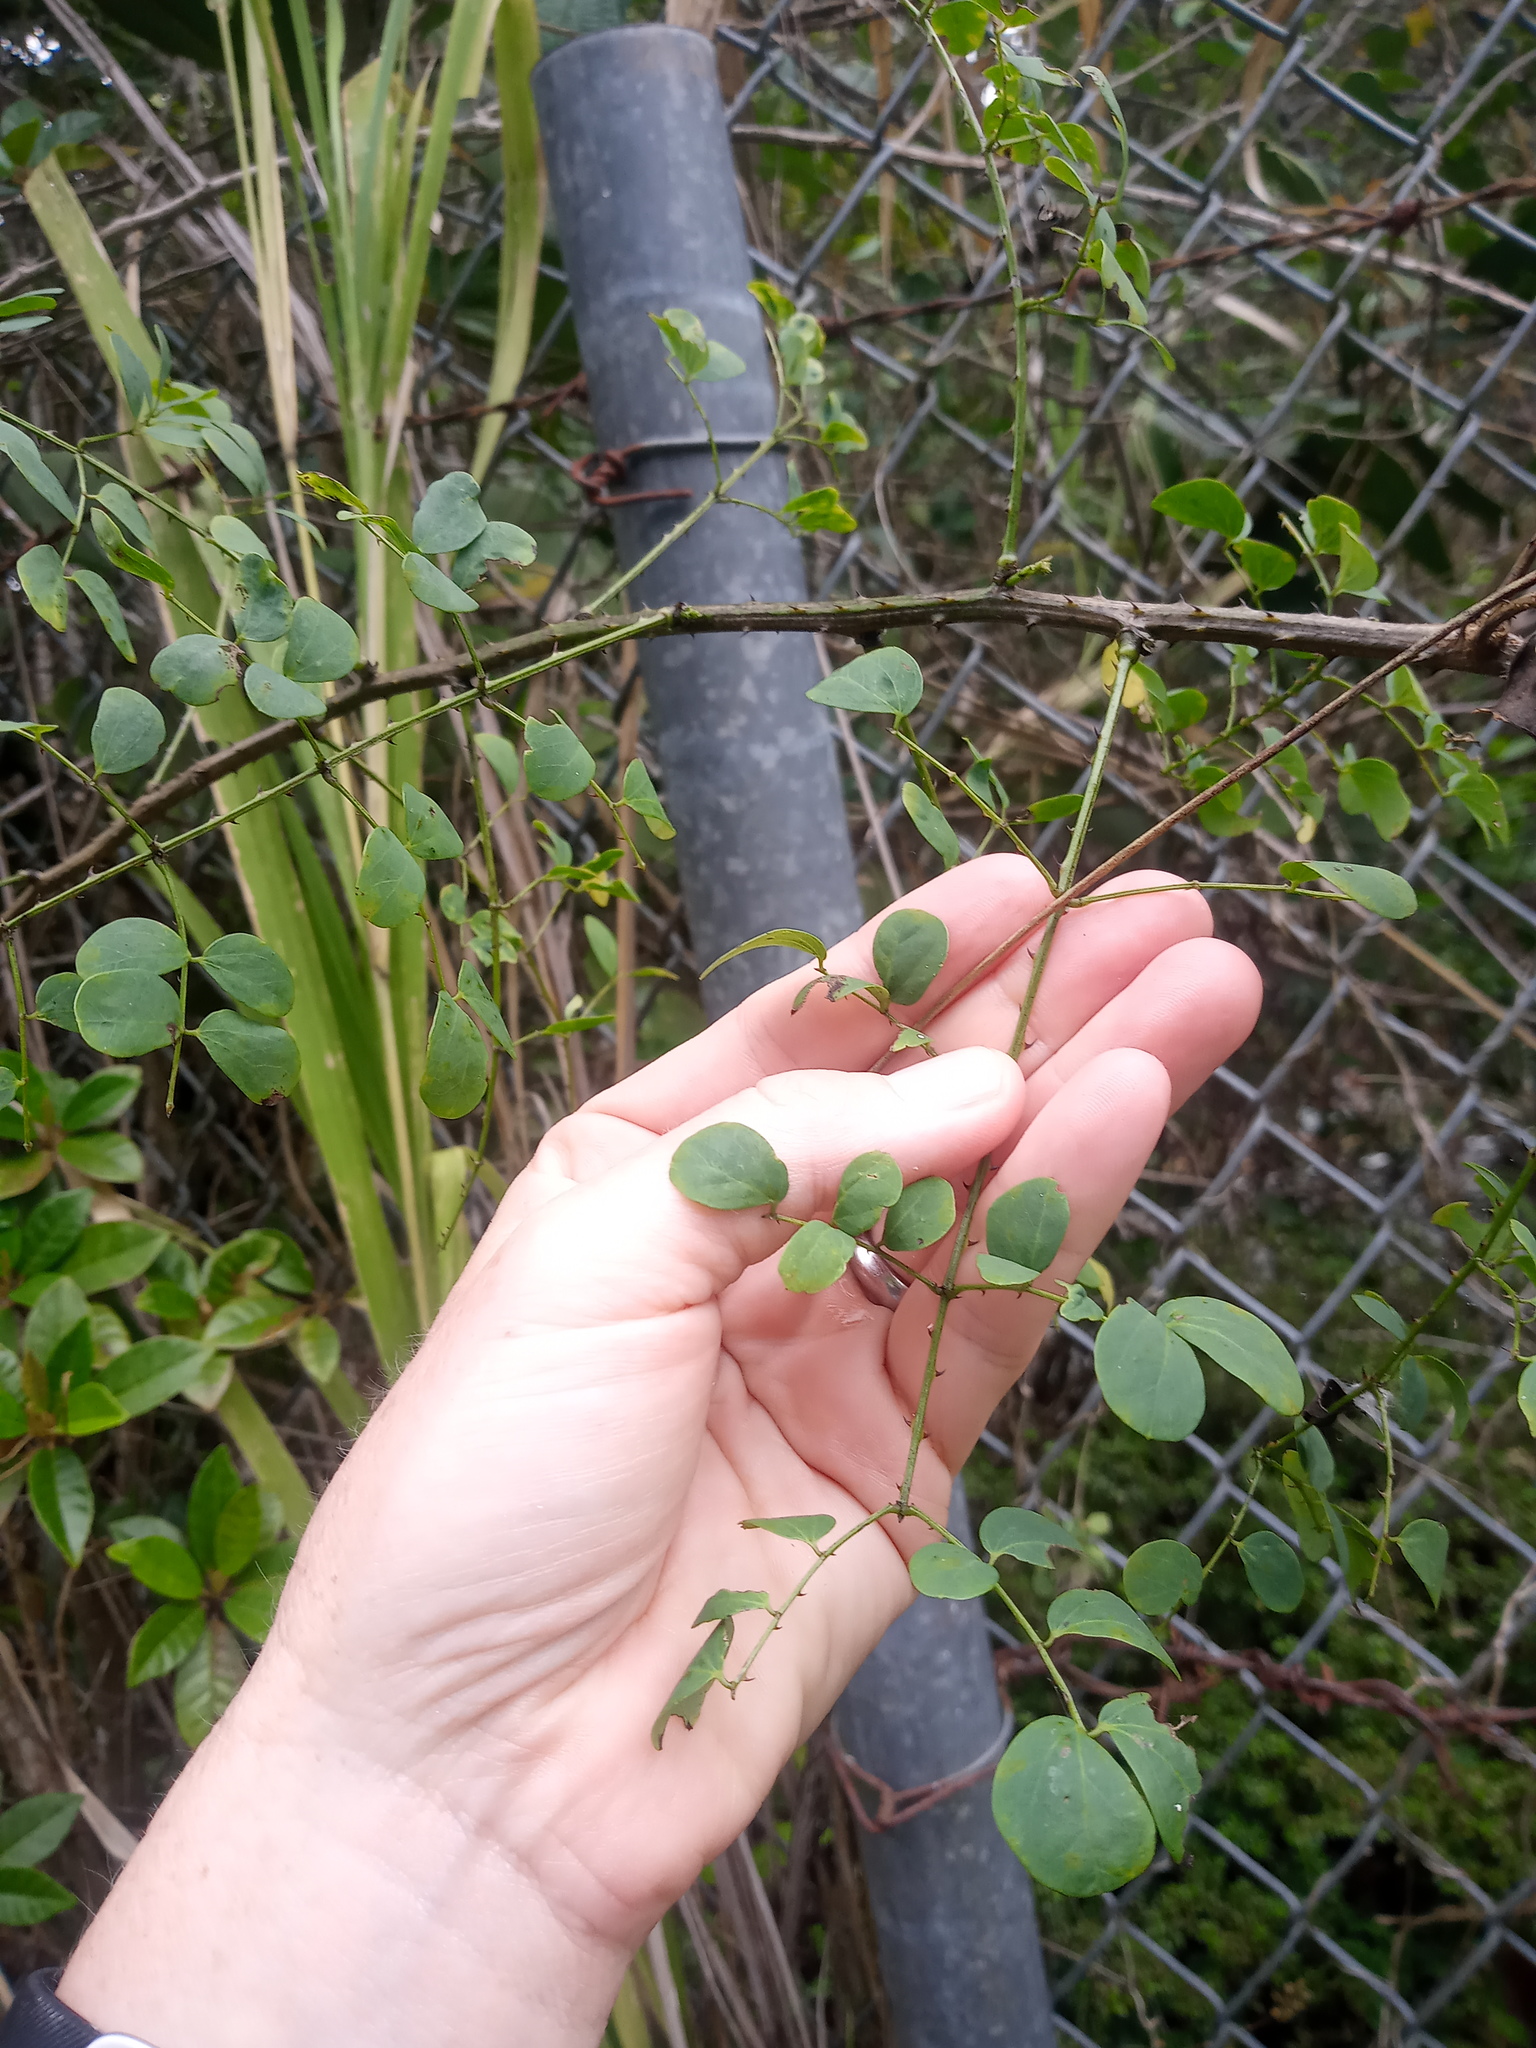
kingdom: Plantae
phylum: Tracheophyta
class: Magnoliopsida
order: Fabales
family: Fabaceae
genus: Mimosa
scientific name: Mimosa ceratonia
